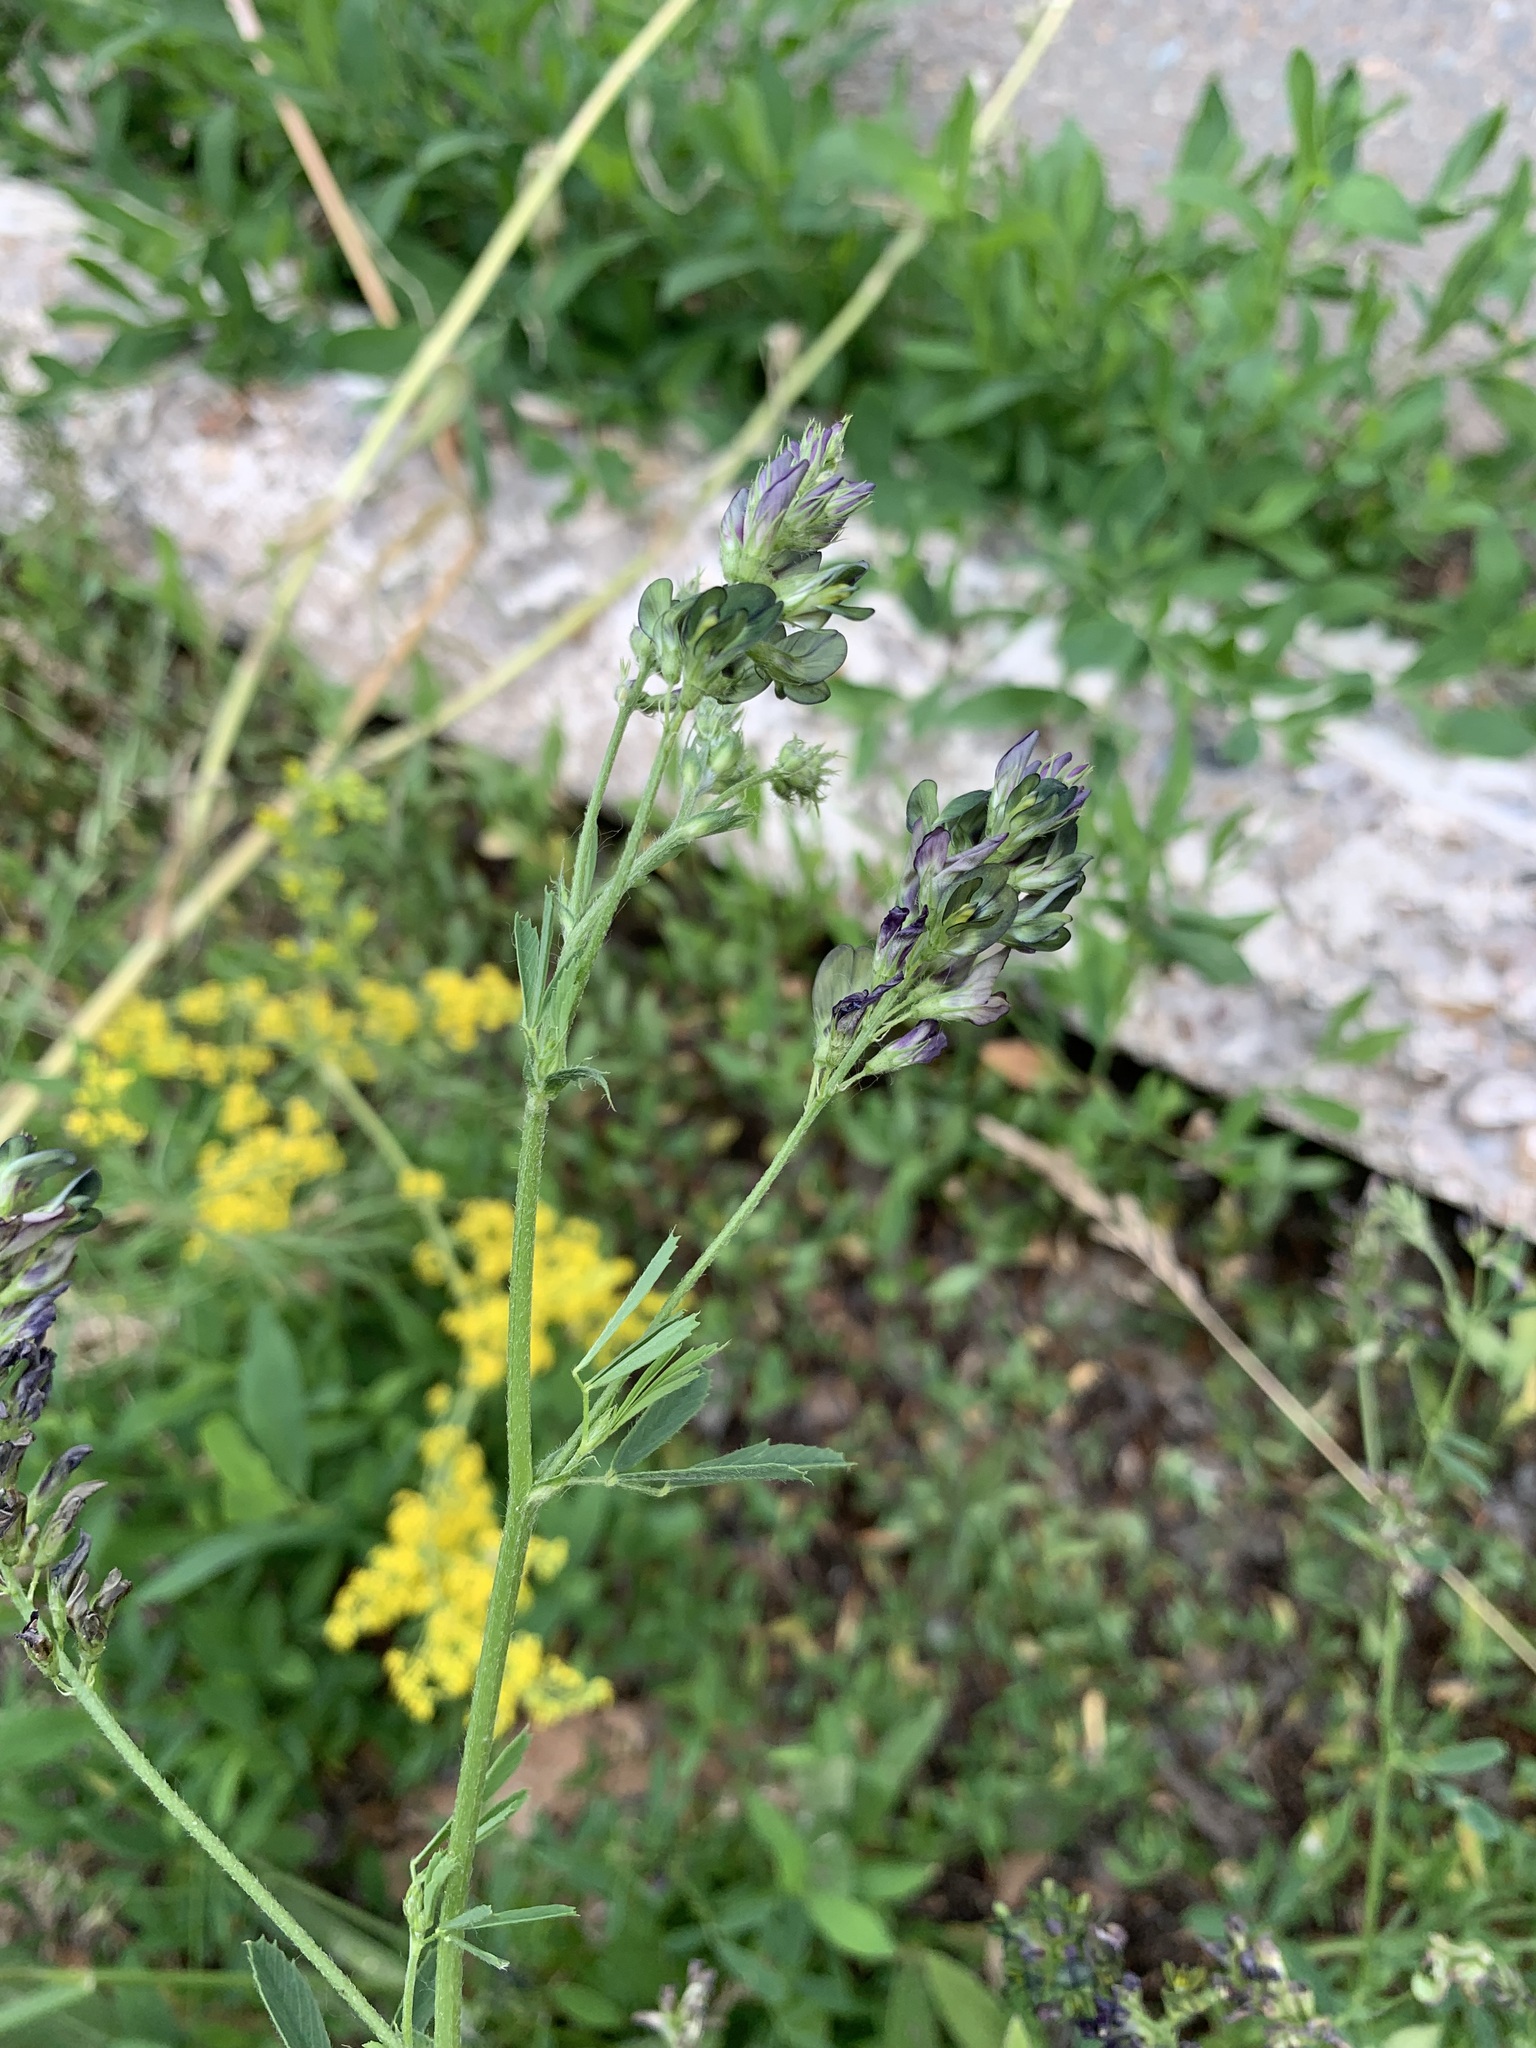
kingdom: Plantae
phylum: Tracheophyta
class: Magnoliopsida
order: Fabales
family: Fabaceae
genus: Medicago
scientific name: Medicago sativa
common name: Alfalfa
